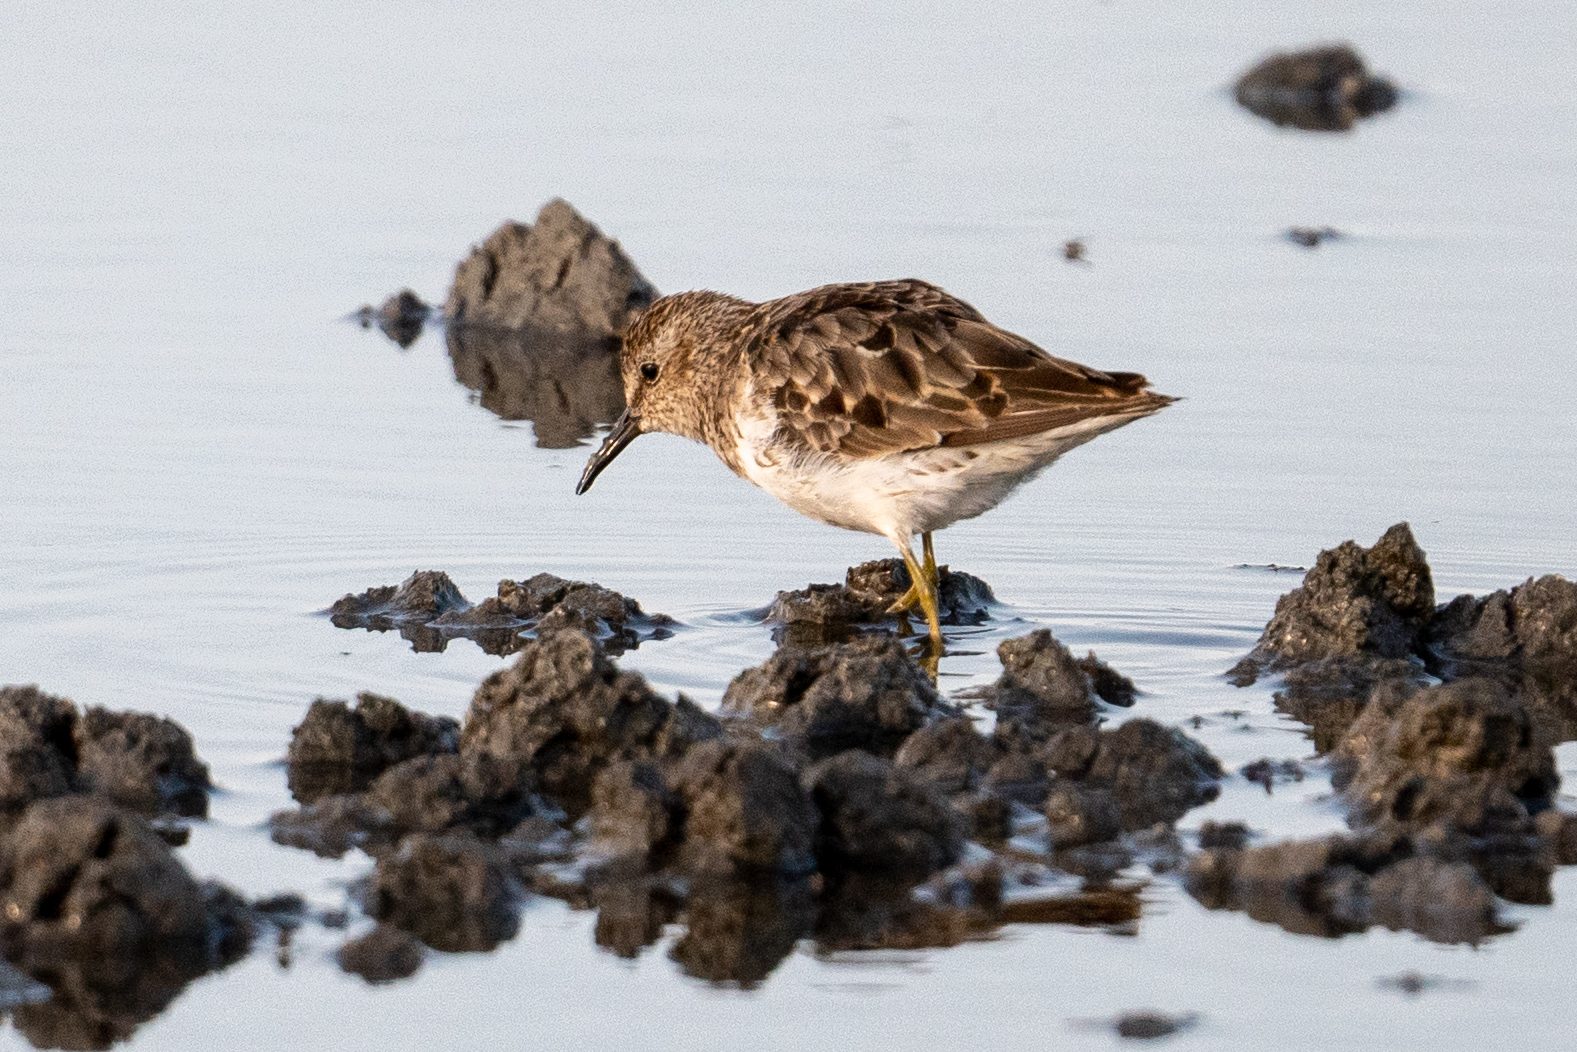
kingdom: Animalia
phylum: Chordata
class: Aves
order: Charadriiformes
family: Scolopacidae
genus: Calidris
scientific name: Calidris minutilla
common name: Least sandpiper
